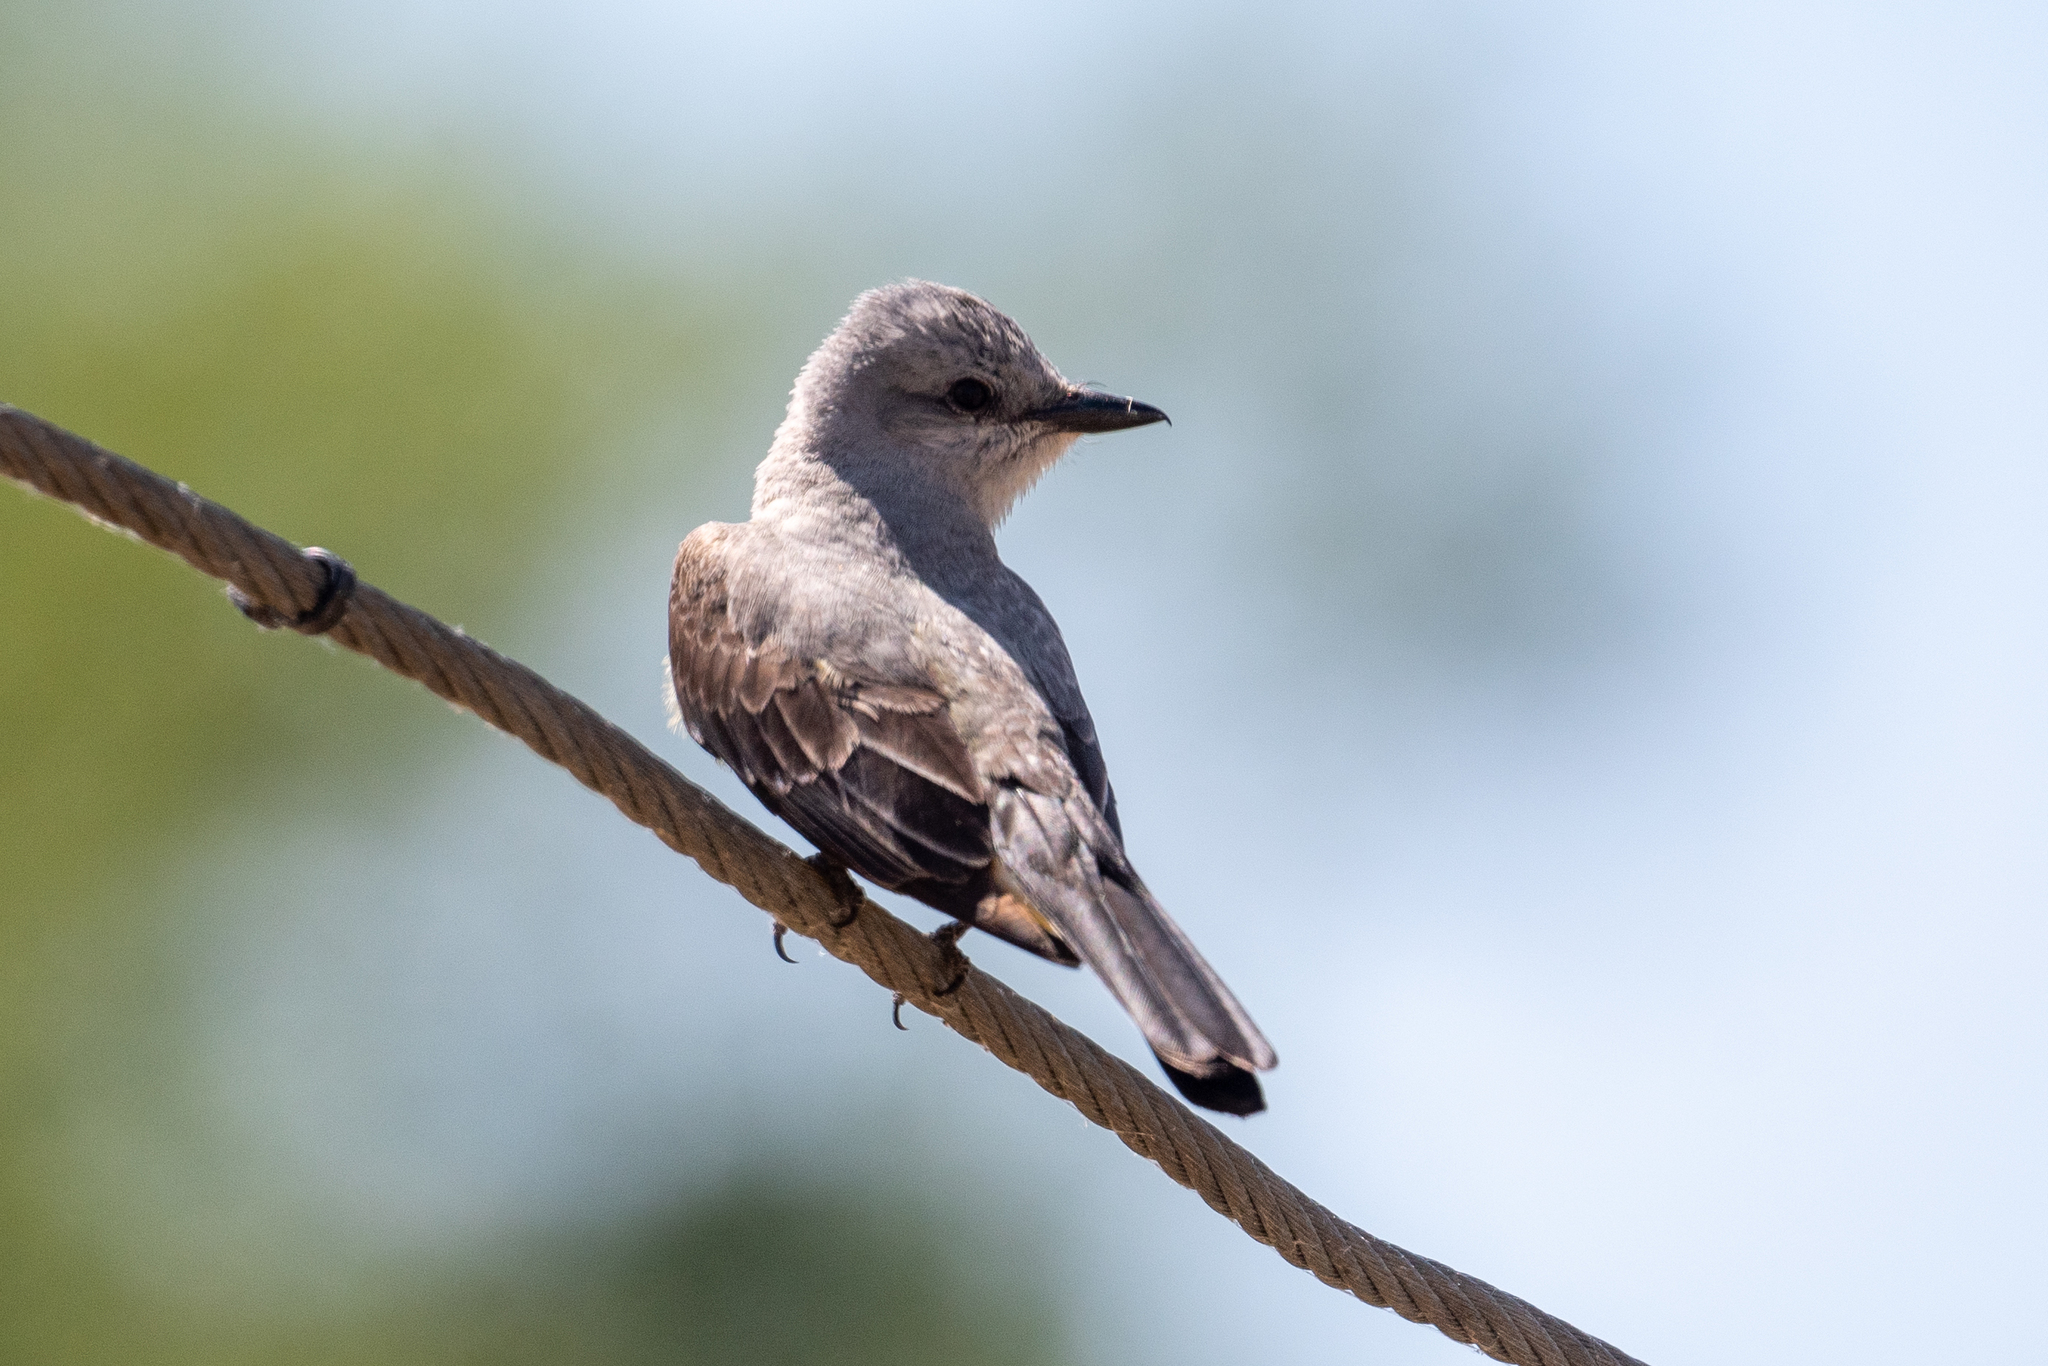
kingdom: Animalia
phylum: Chordata
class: Aves
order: Passeriformes
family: Tyrannidae
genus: Tyrannus
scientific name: Tyrannus verticalis
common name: Western kingbird
